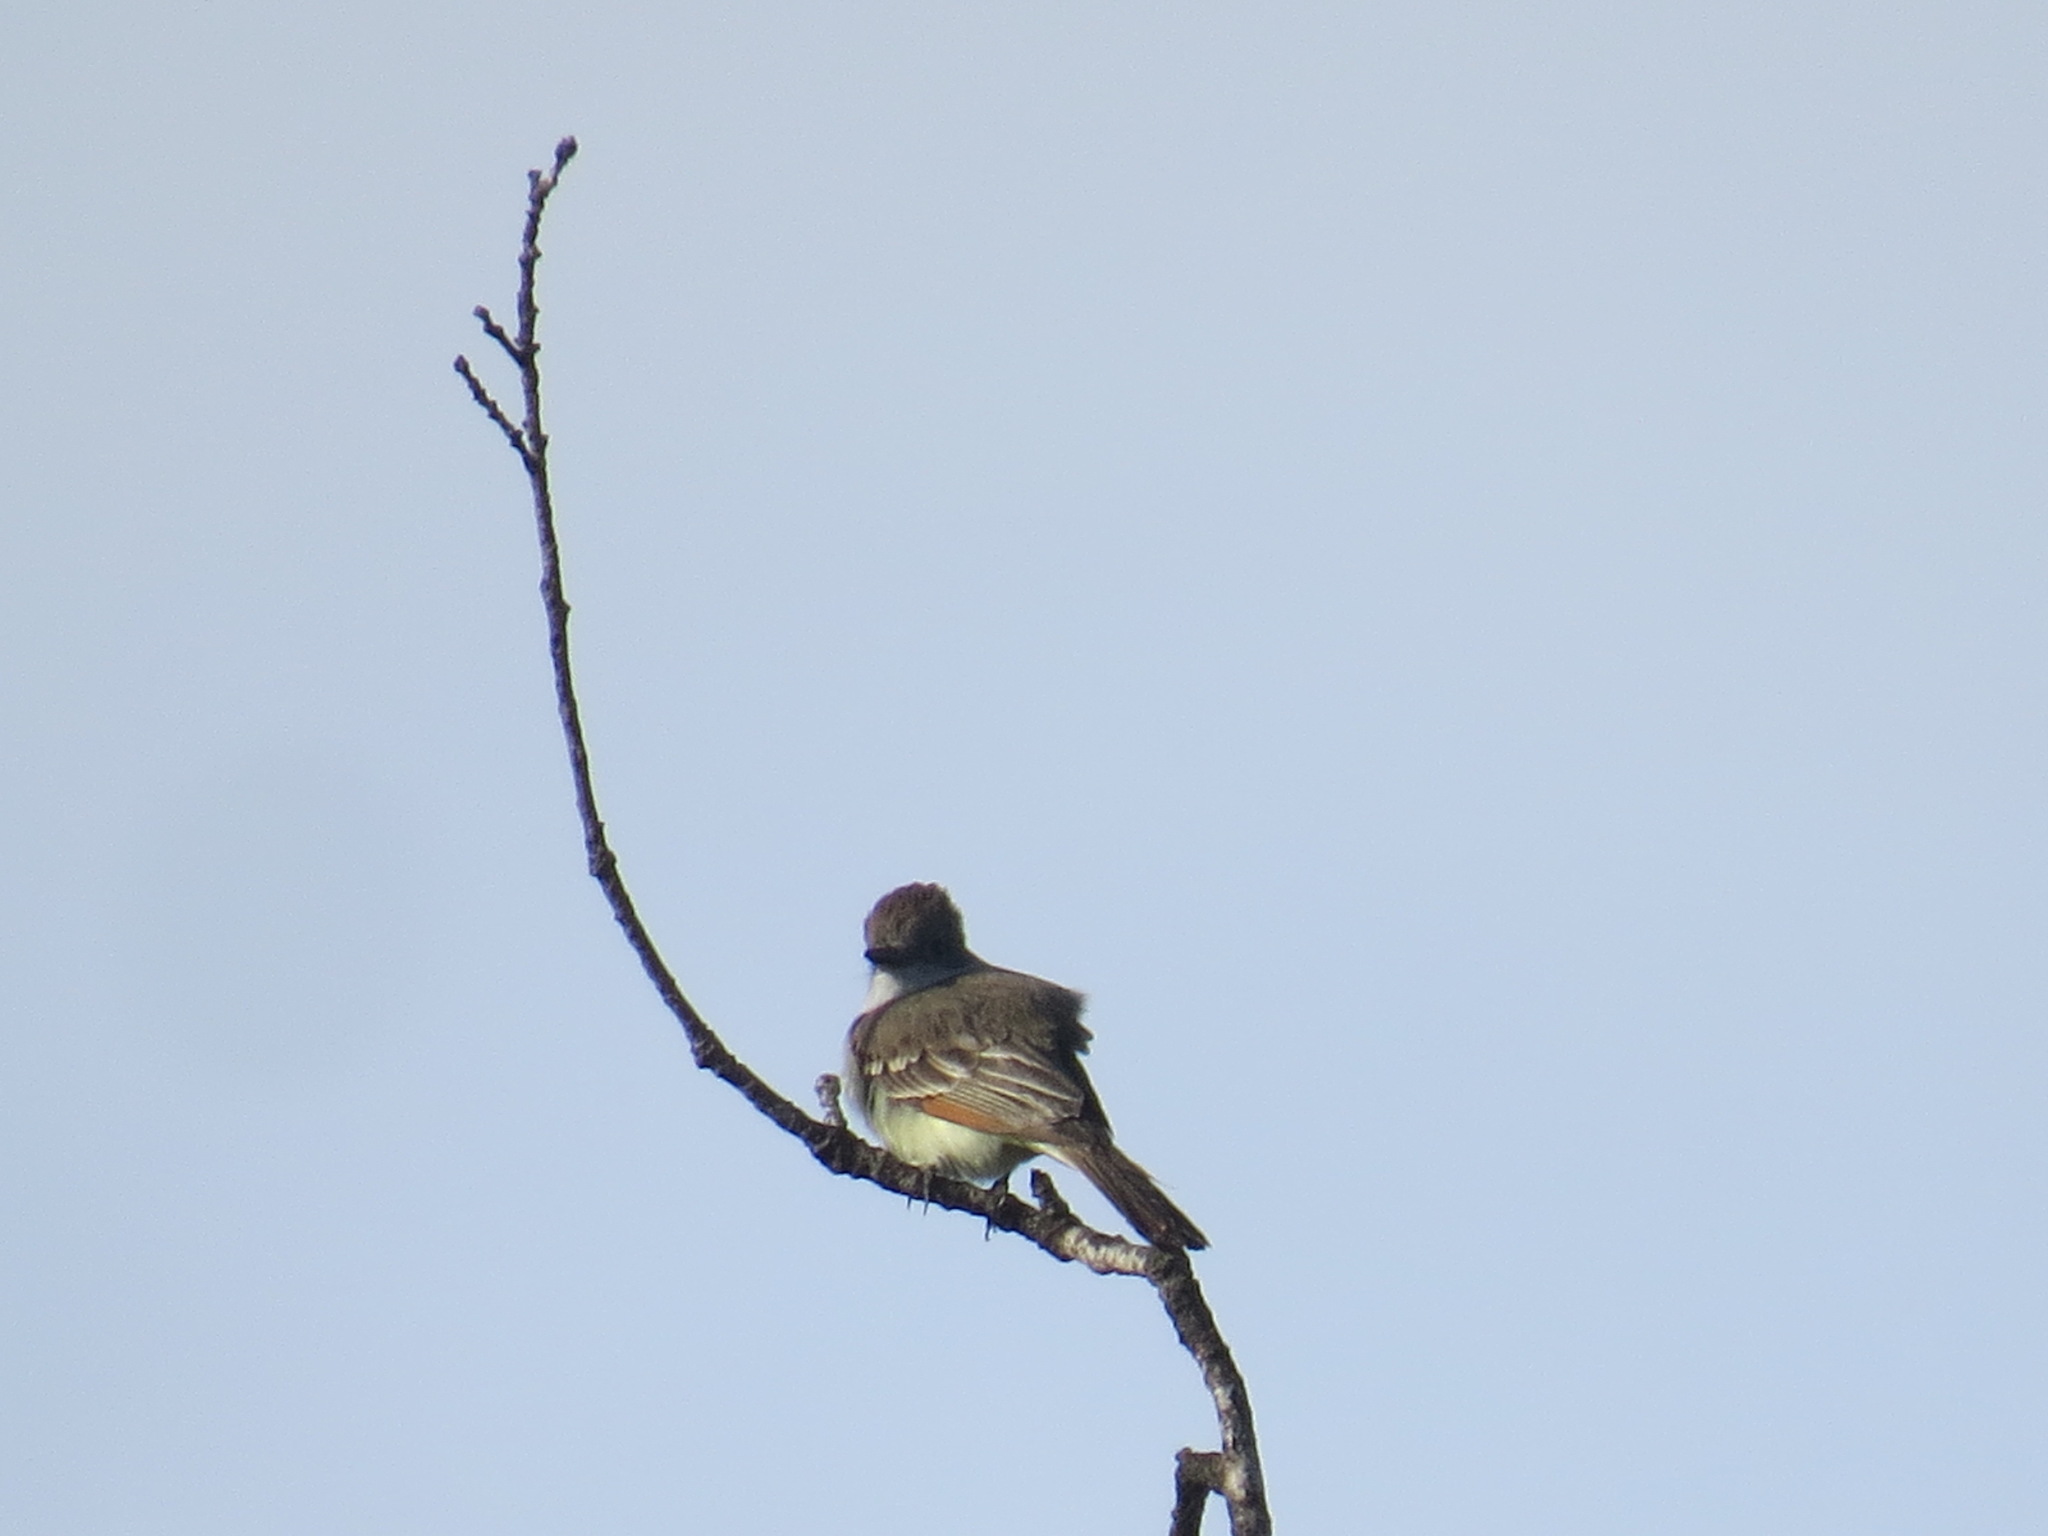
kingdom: Animalia
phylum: Chordata
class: Aves
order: Passeriformes
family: Tyrannidae
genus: Myiarchus
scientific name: Myiarchus cinerascens
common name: Ash-throated flycatcher
